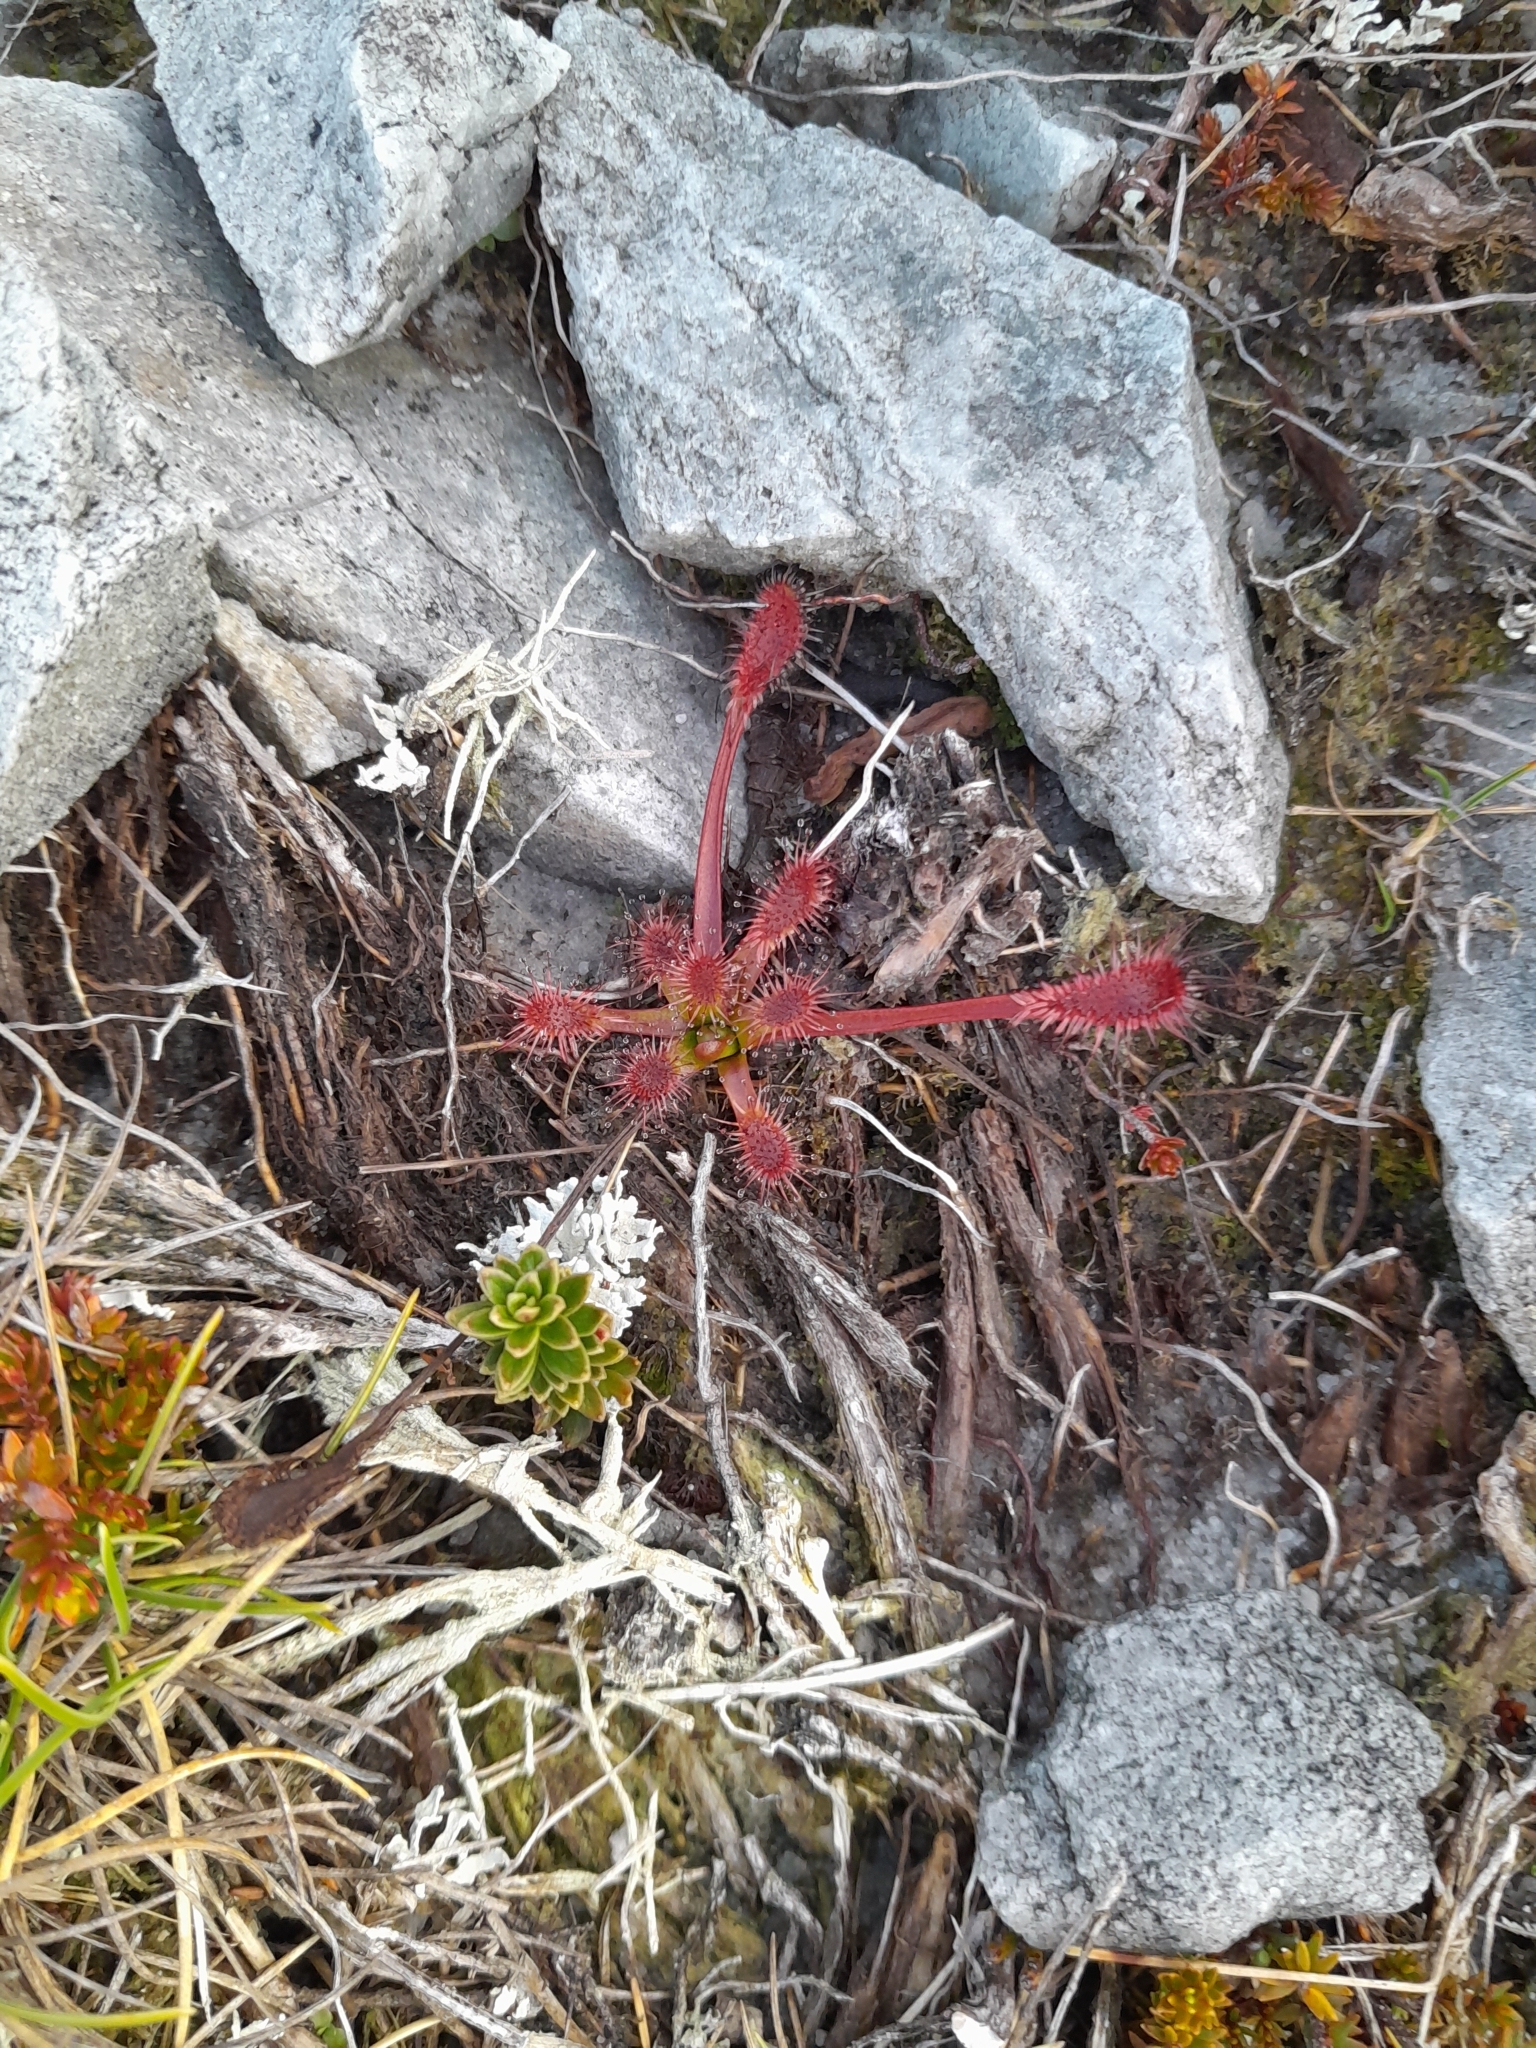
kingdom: Plantae
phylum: Tracheophyta
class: Magnoliopsida
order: Caryophyllales
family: Droseraceae
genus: Drosera
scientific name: Drosera stenopetala
